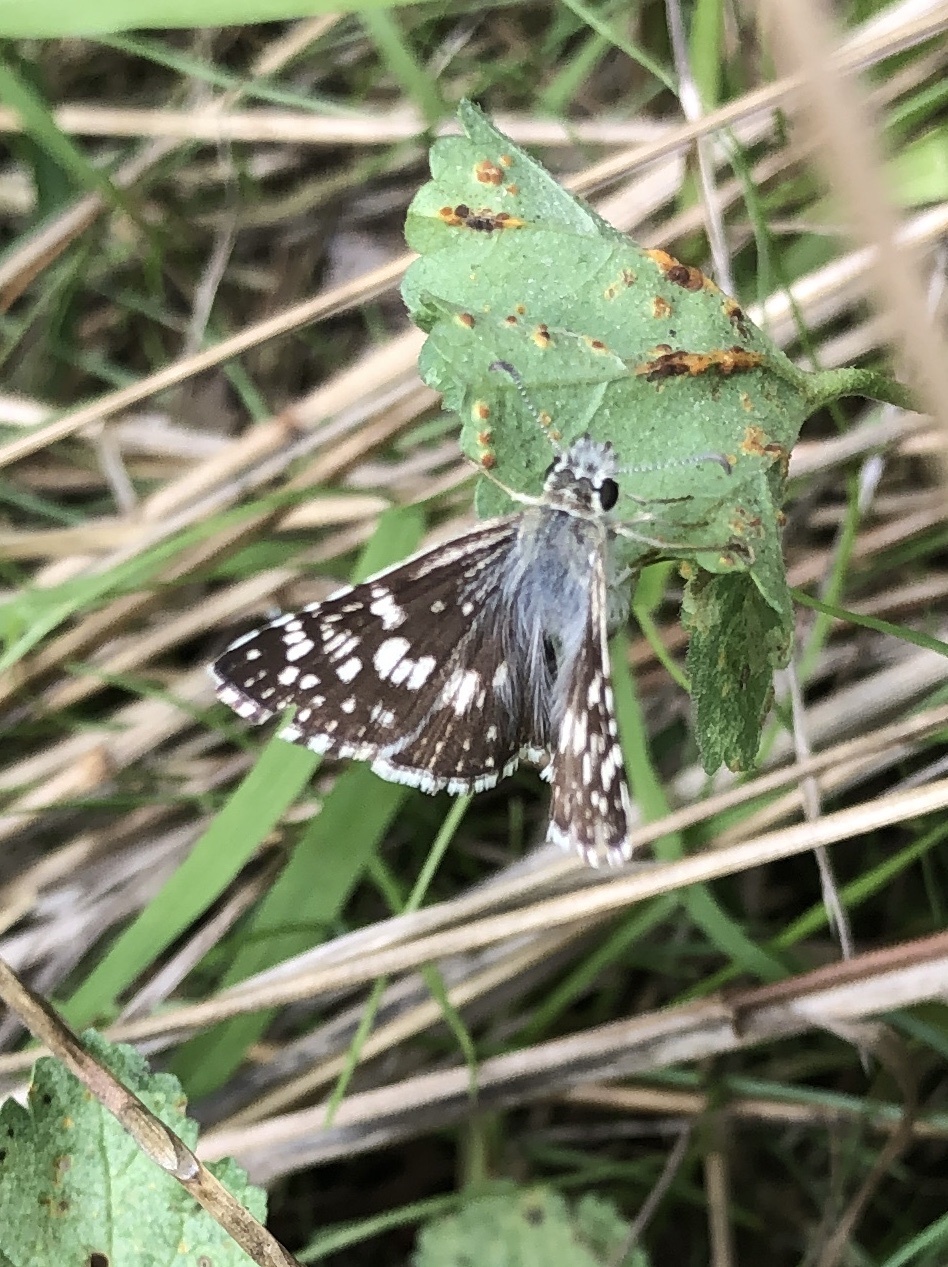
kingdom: Animalia
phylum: Arthropoda
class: Insecta
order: Lepidoptera
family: Hesperiidae
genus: Burnsius
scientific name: Burnsius communis
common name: Common checkered-skipper
